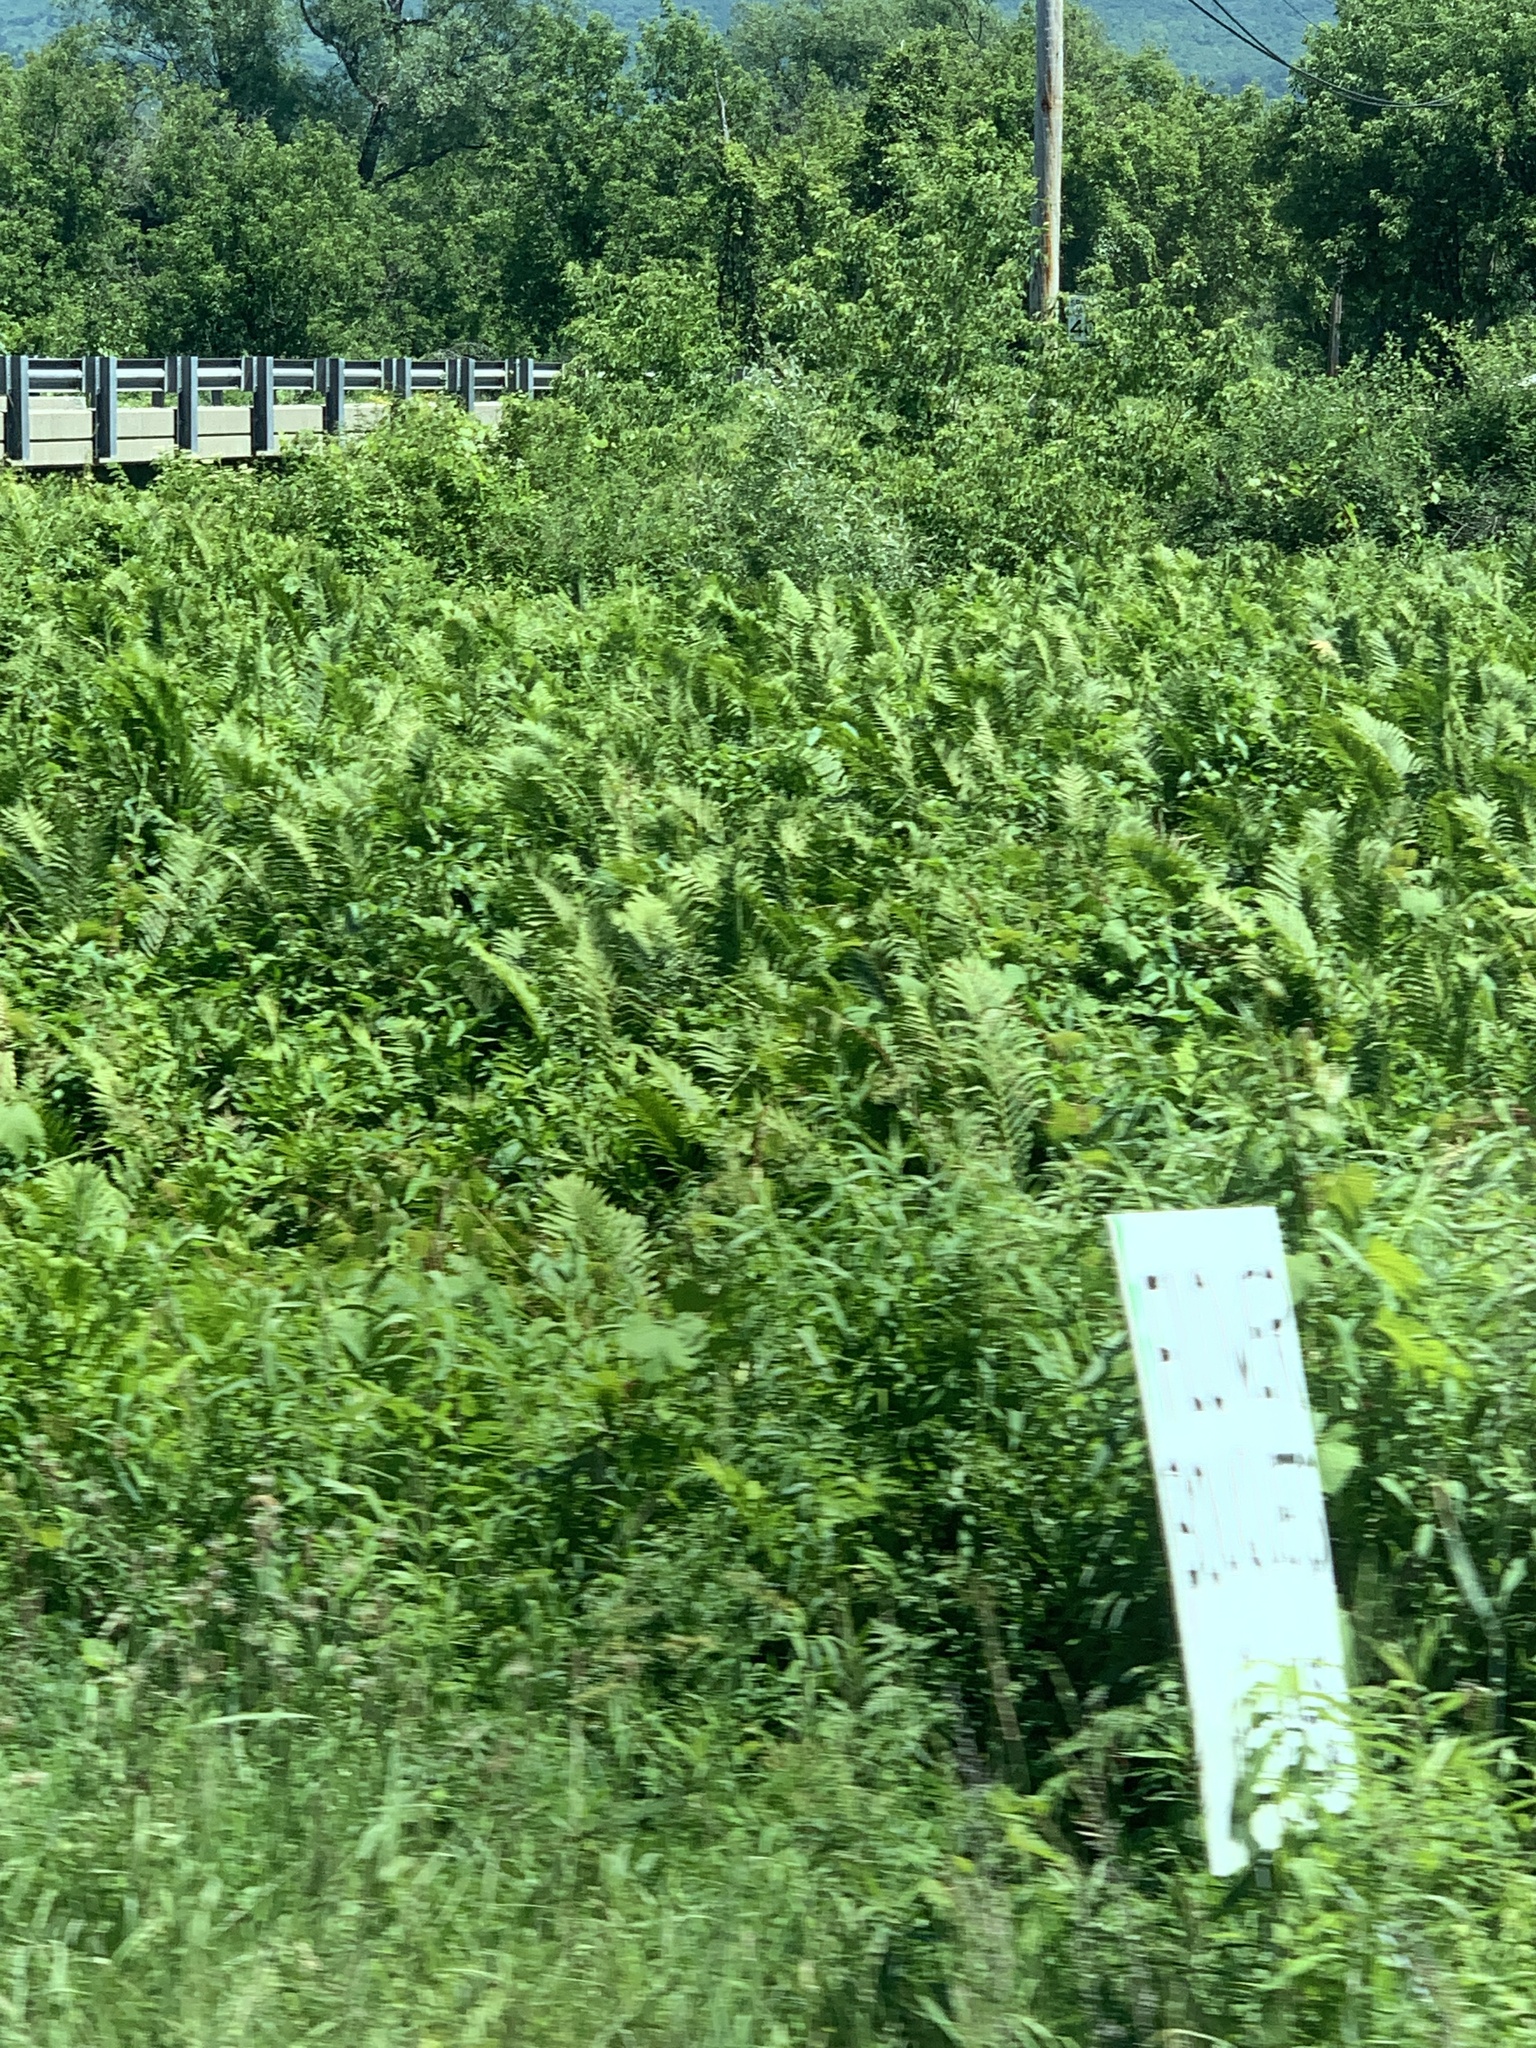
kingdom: Plantae
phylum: Tracheophyta
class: Polypodiopsida
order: Polypodiales
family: Onocleaceae
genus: Matteuccia
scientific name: Matteuccia struthiopteris
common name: Ostrich fern
